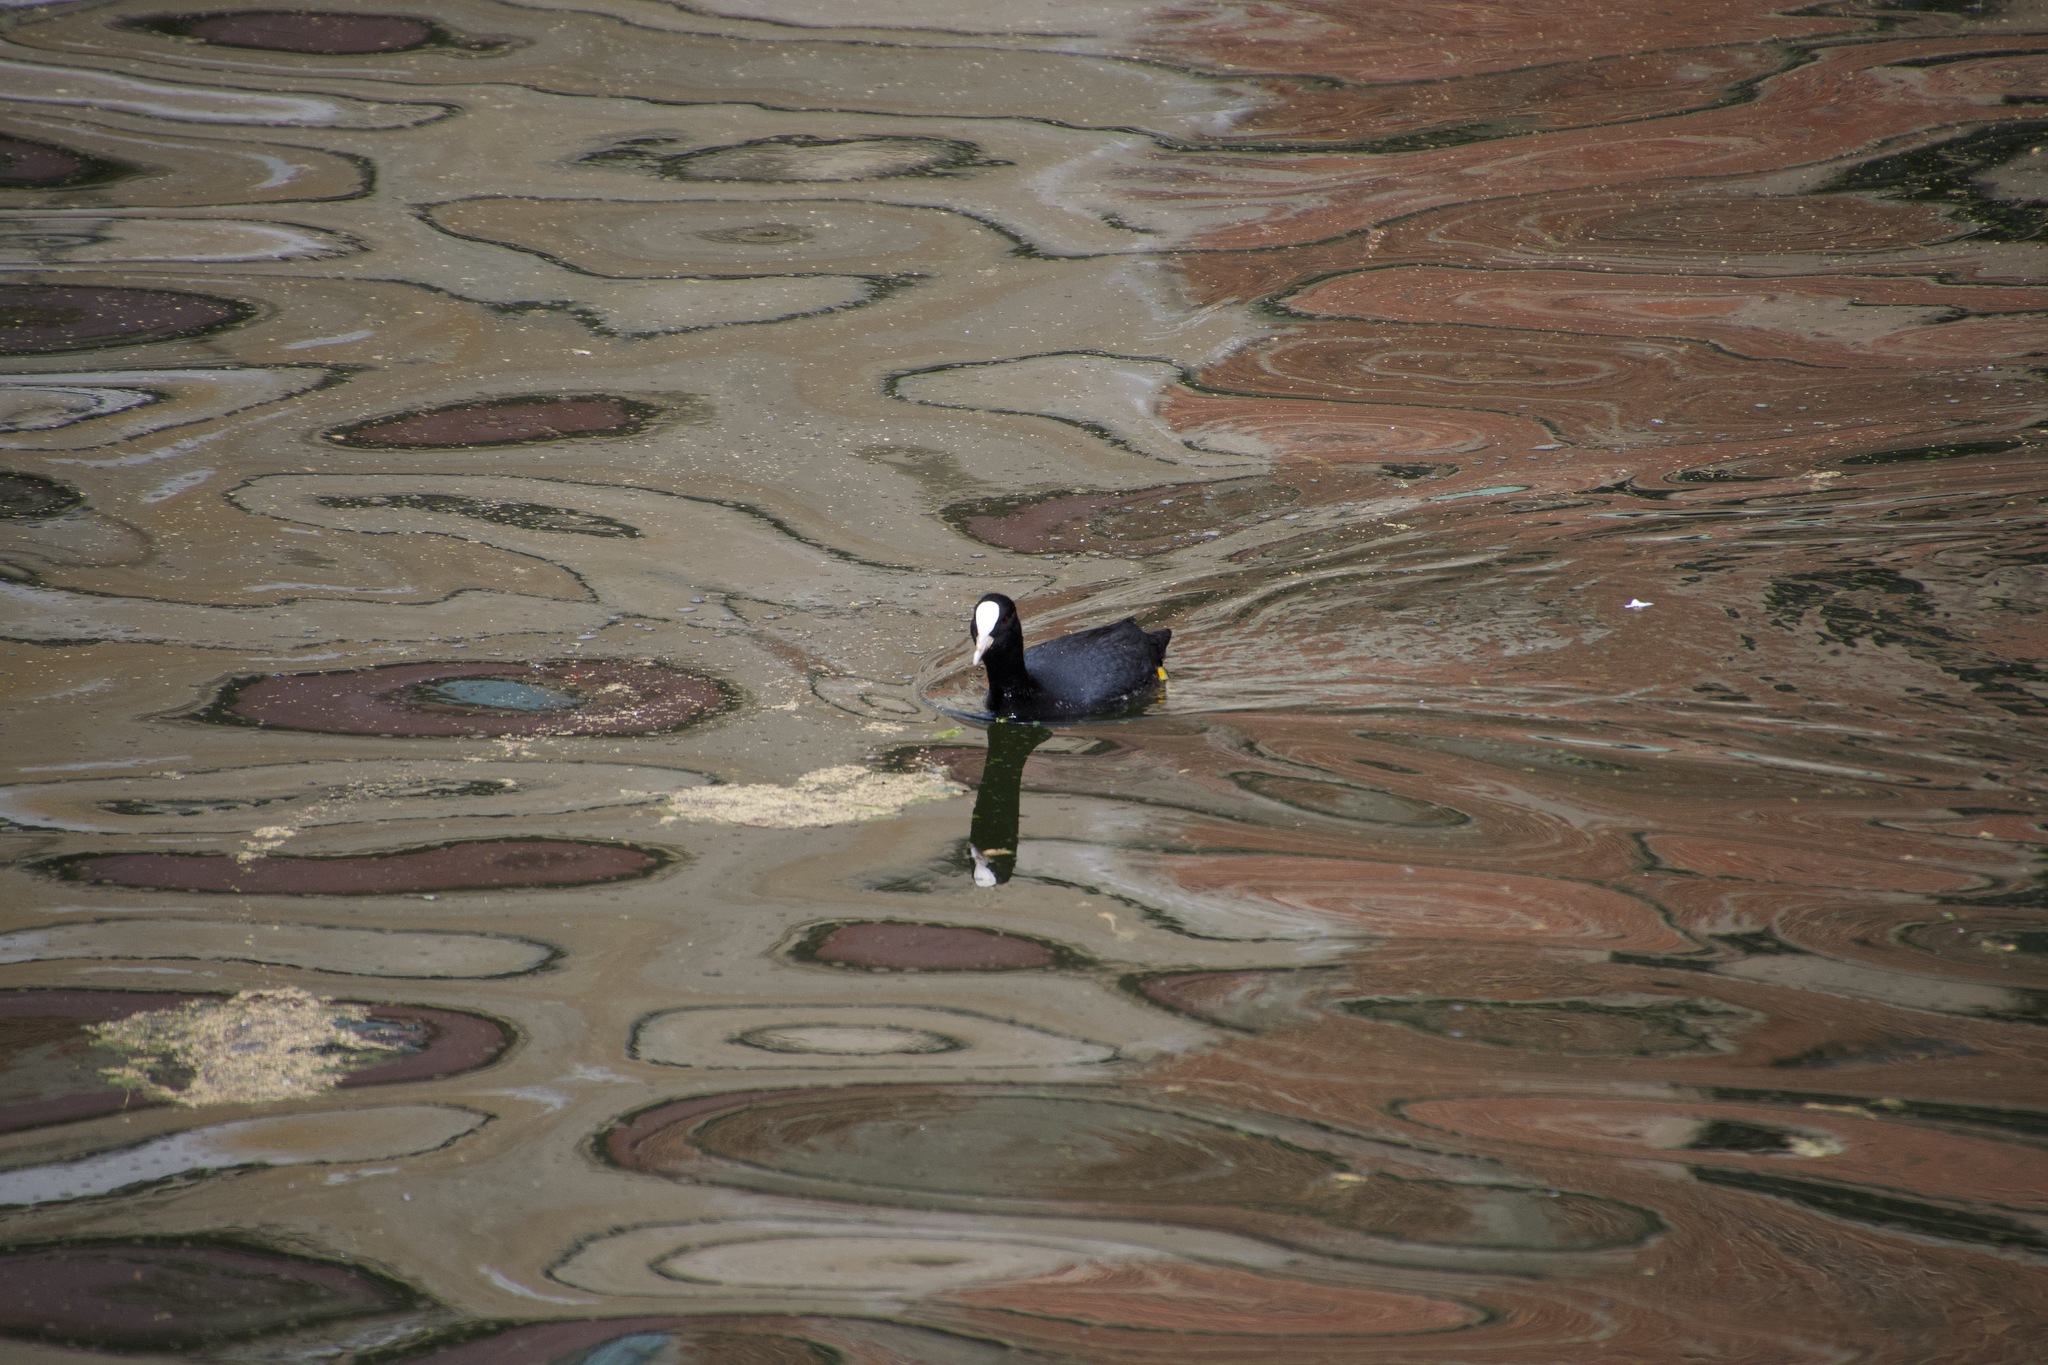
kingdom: Animalia
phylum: Chordata
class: Aves
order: Gruiformes
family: Rallidae
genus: Fulica
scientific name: Fulica atra
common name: Eurasian coot
